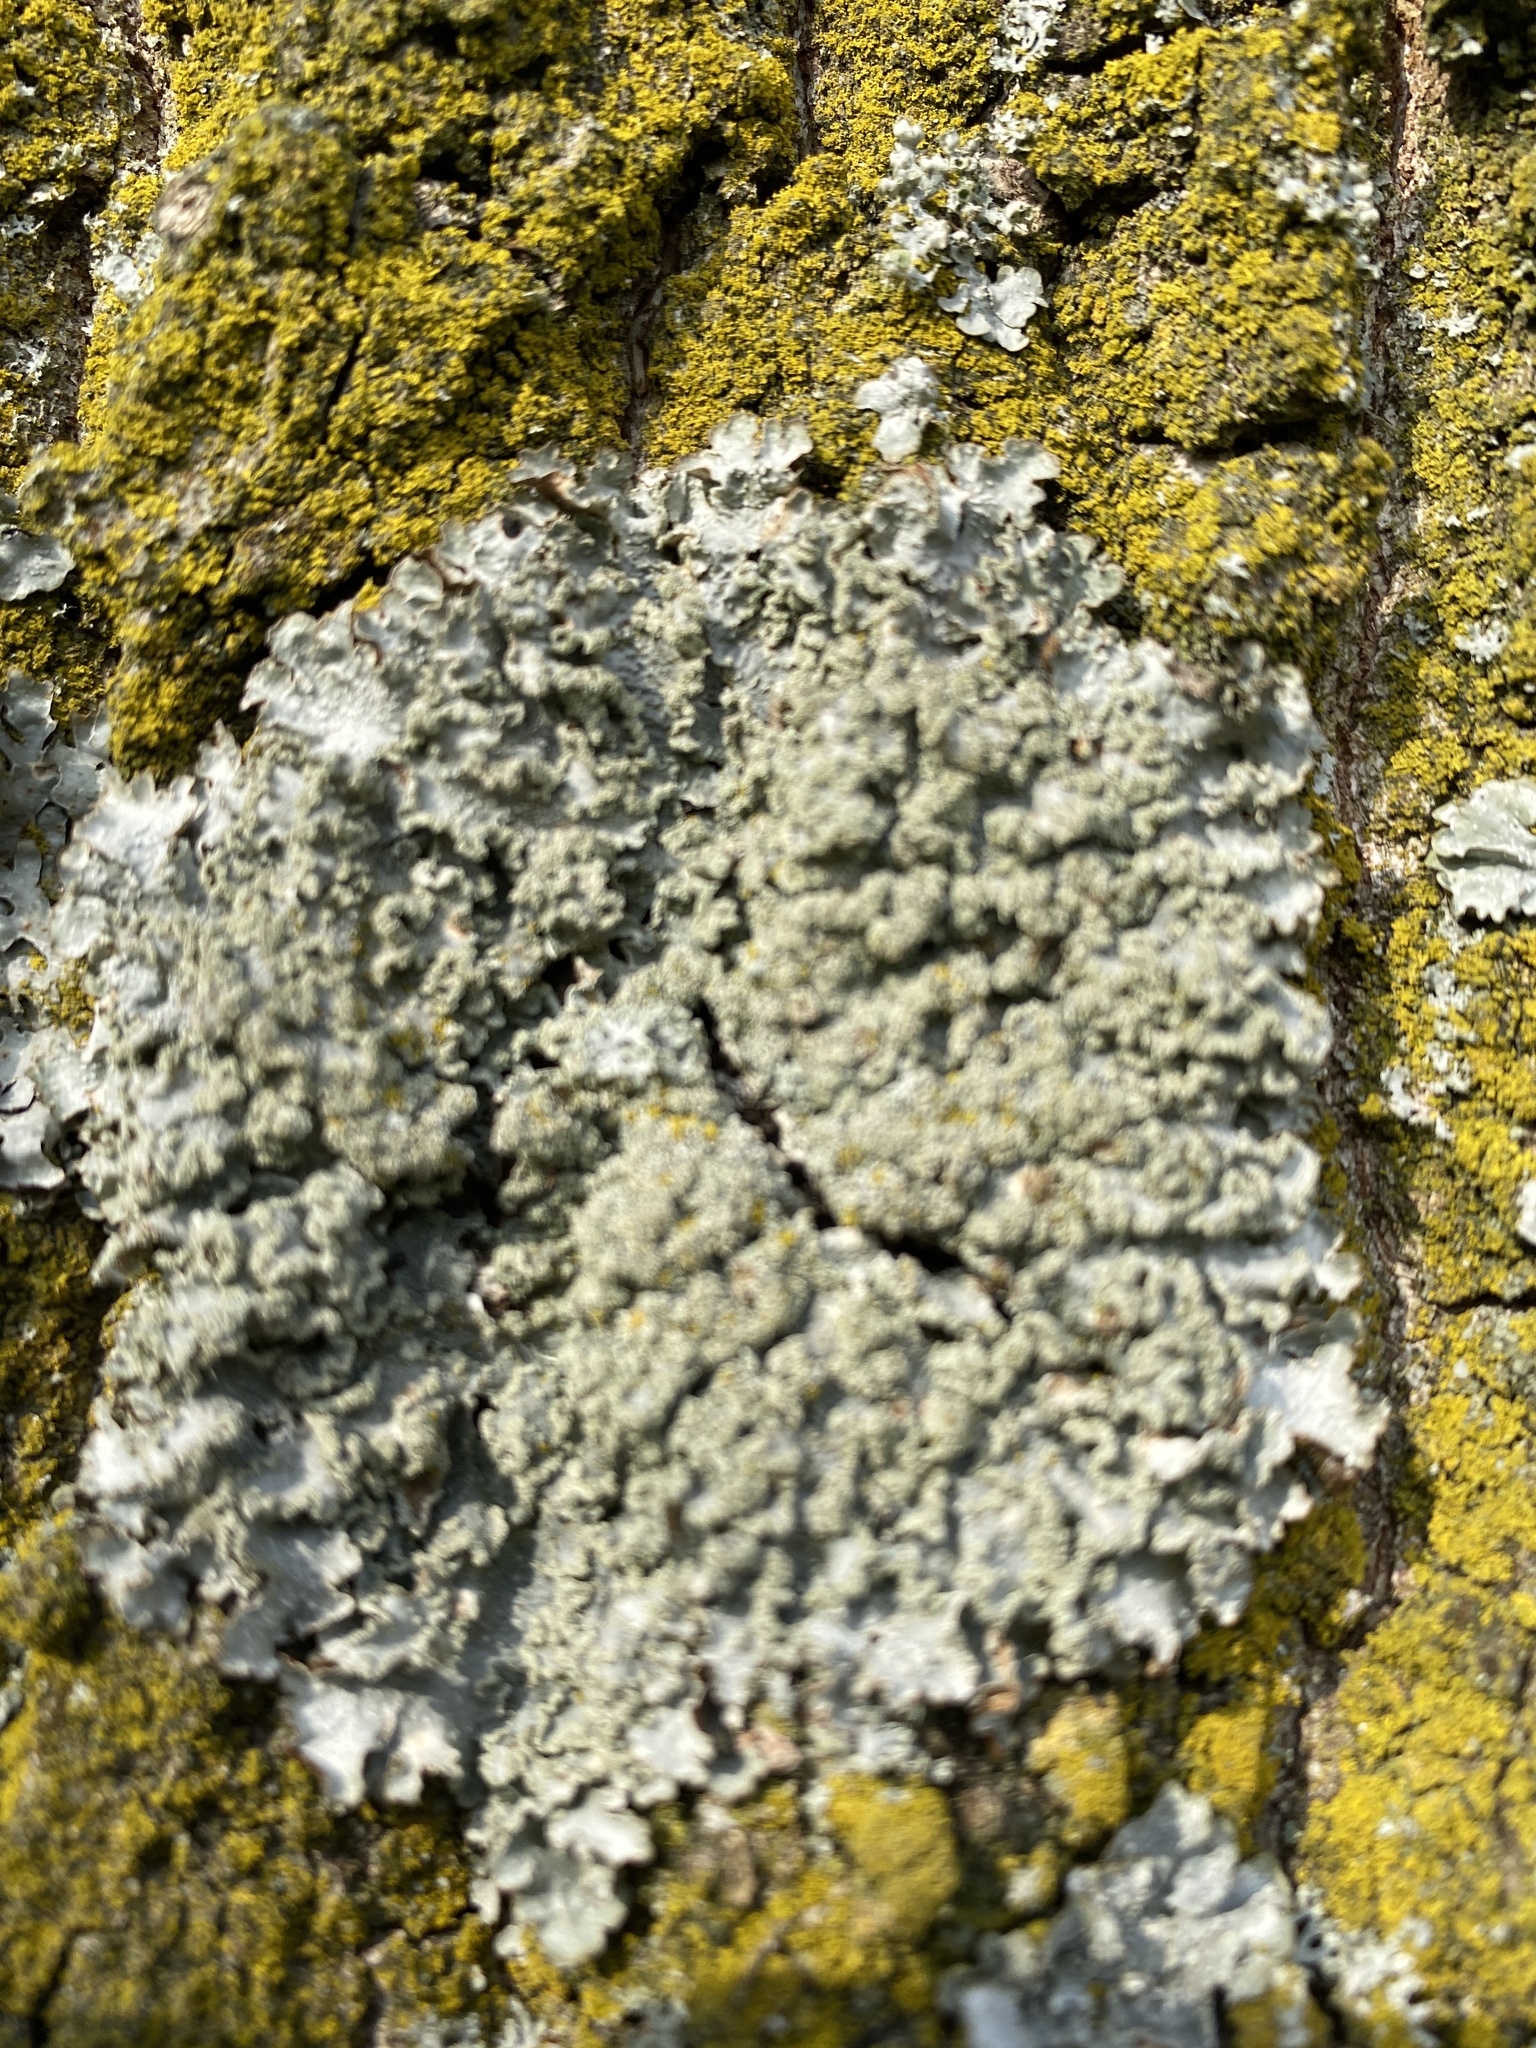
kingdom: Fungi
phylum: Ascomycota
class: Lecanoromycetes
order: Lecanorales
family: Parmeliaceae
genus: Punctelia
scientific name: Punctelia jeckeri
